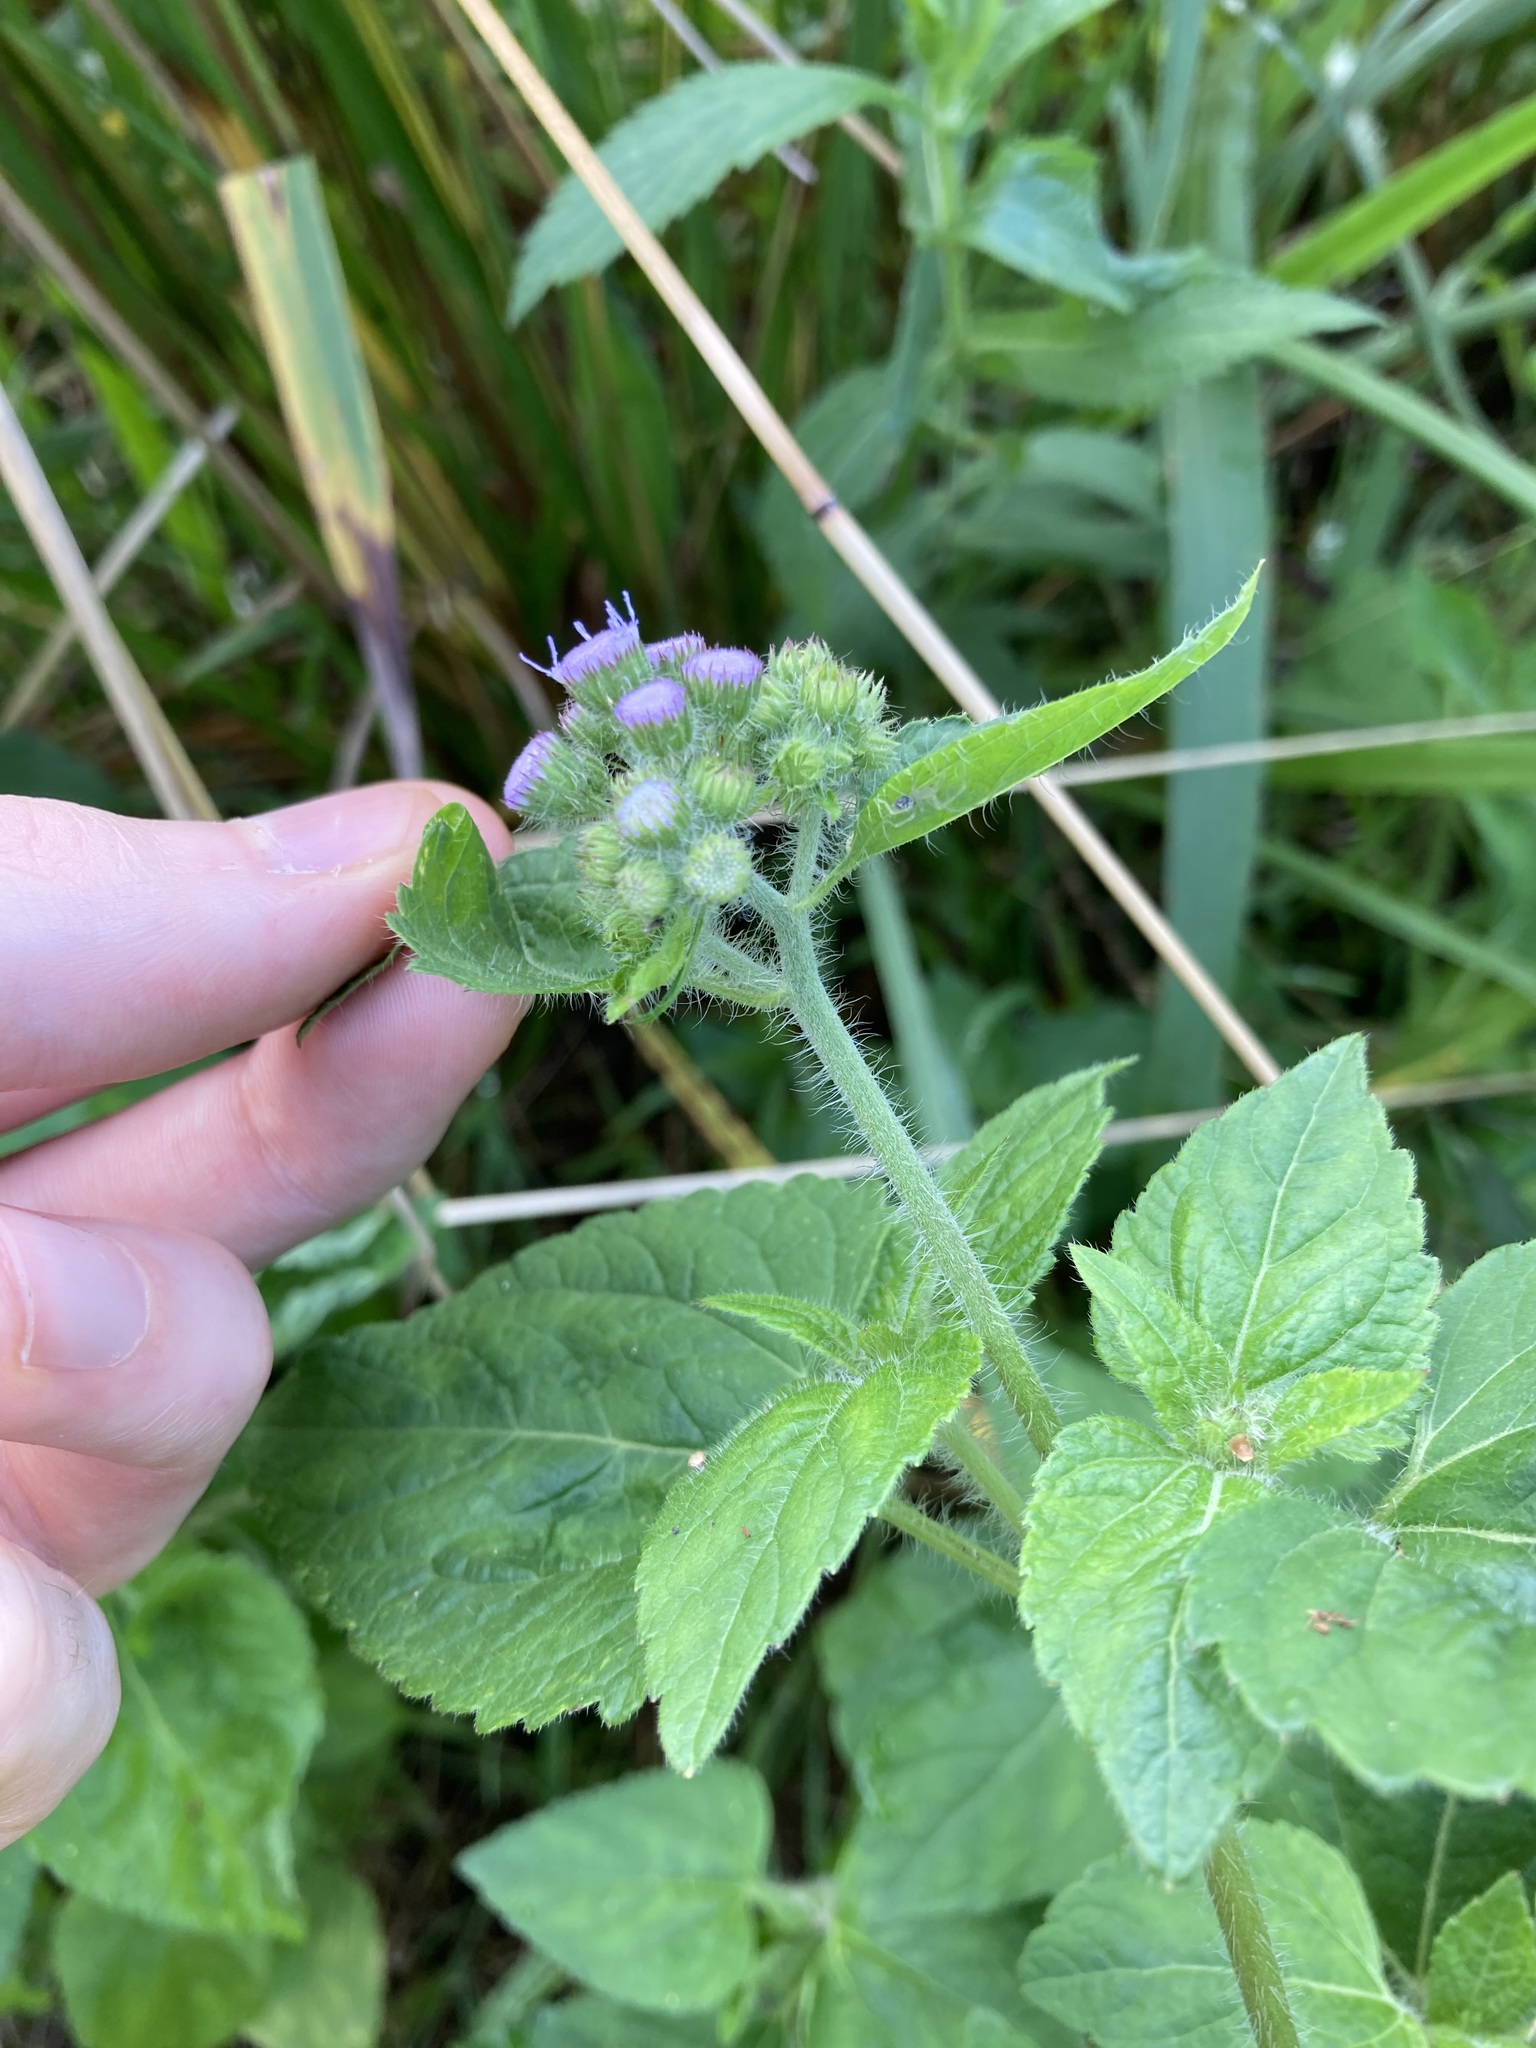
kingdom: Plantae
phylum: Tracheophyta
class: Magnoliopsida
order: Asterales
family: Asteraceae
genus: Ageratum
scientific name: Ageratum houstonianum
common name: Bluemink
